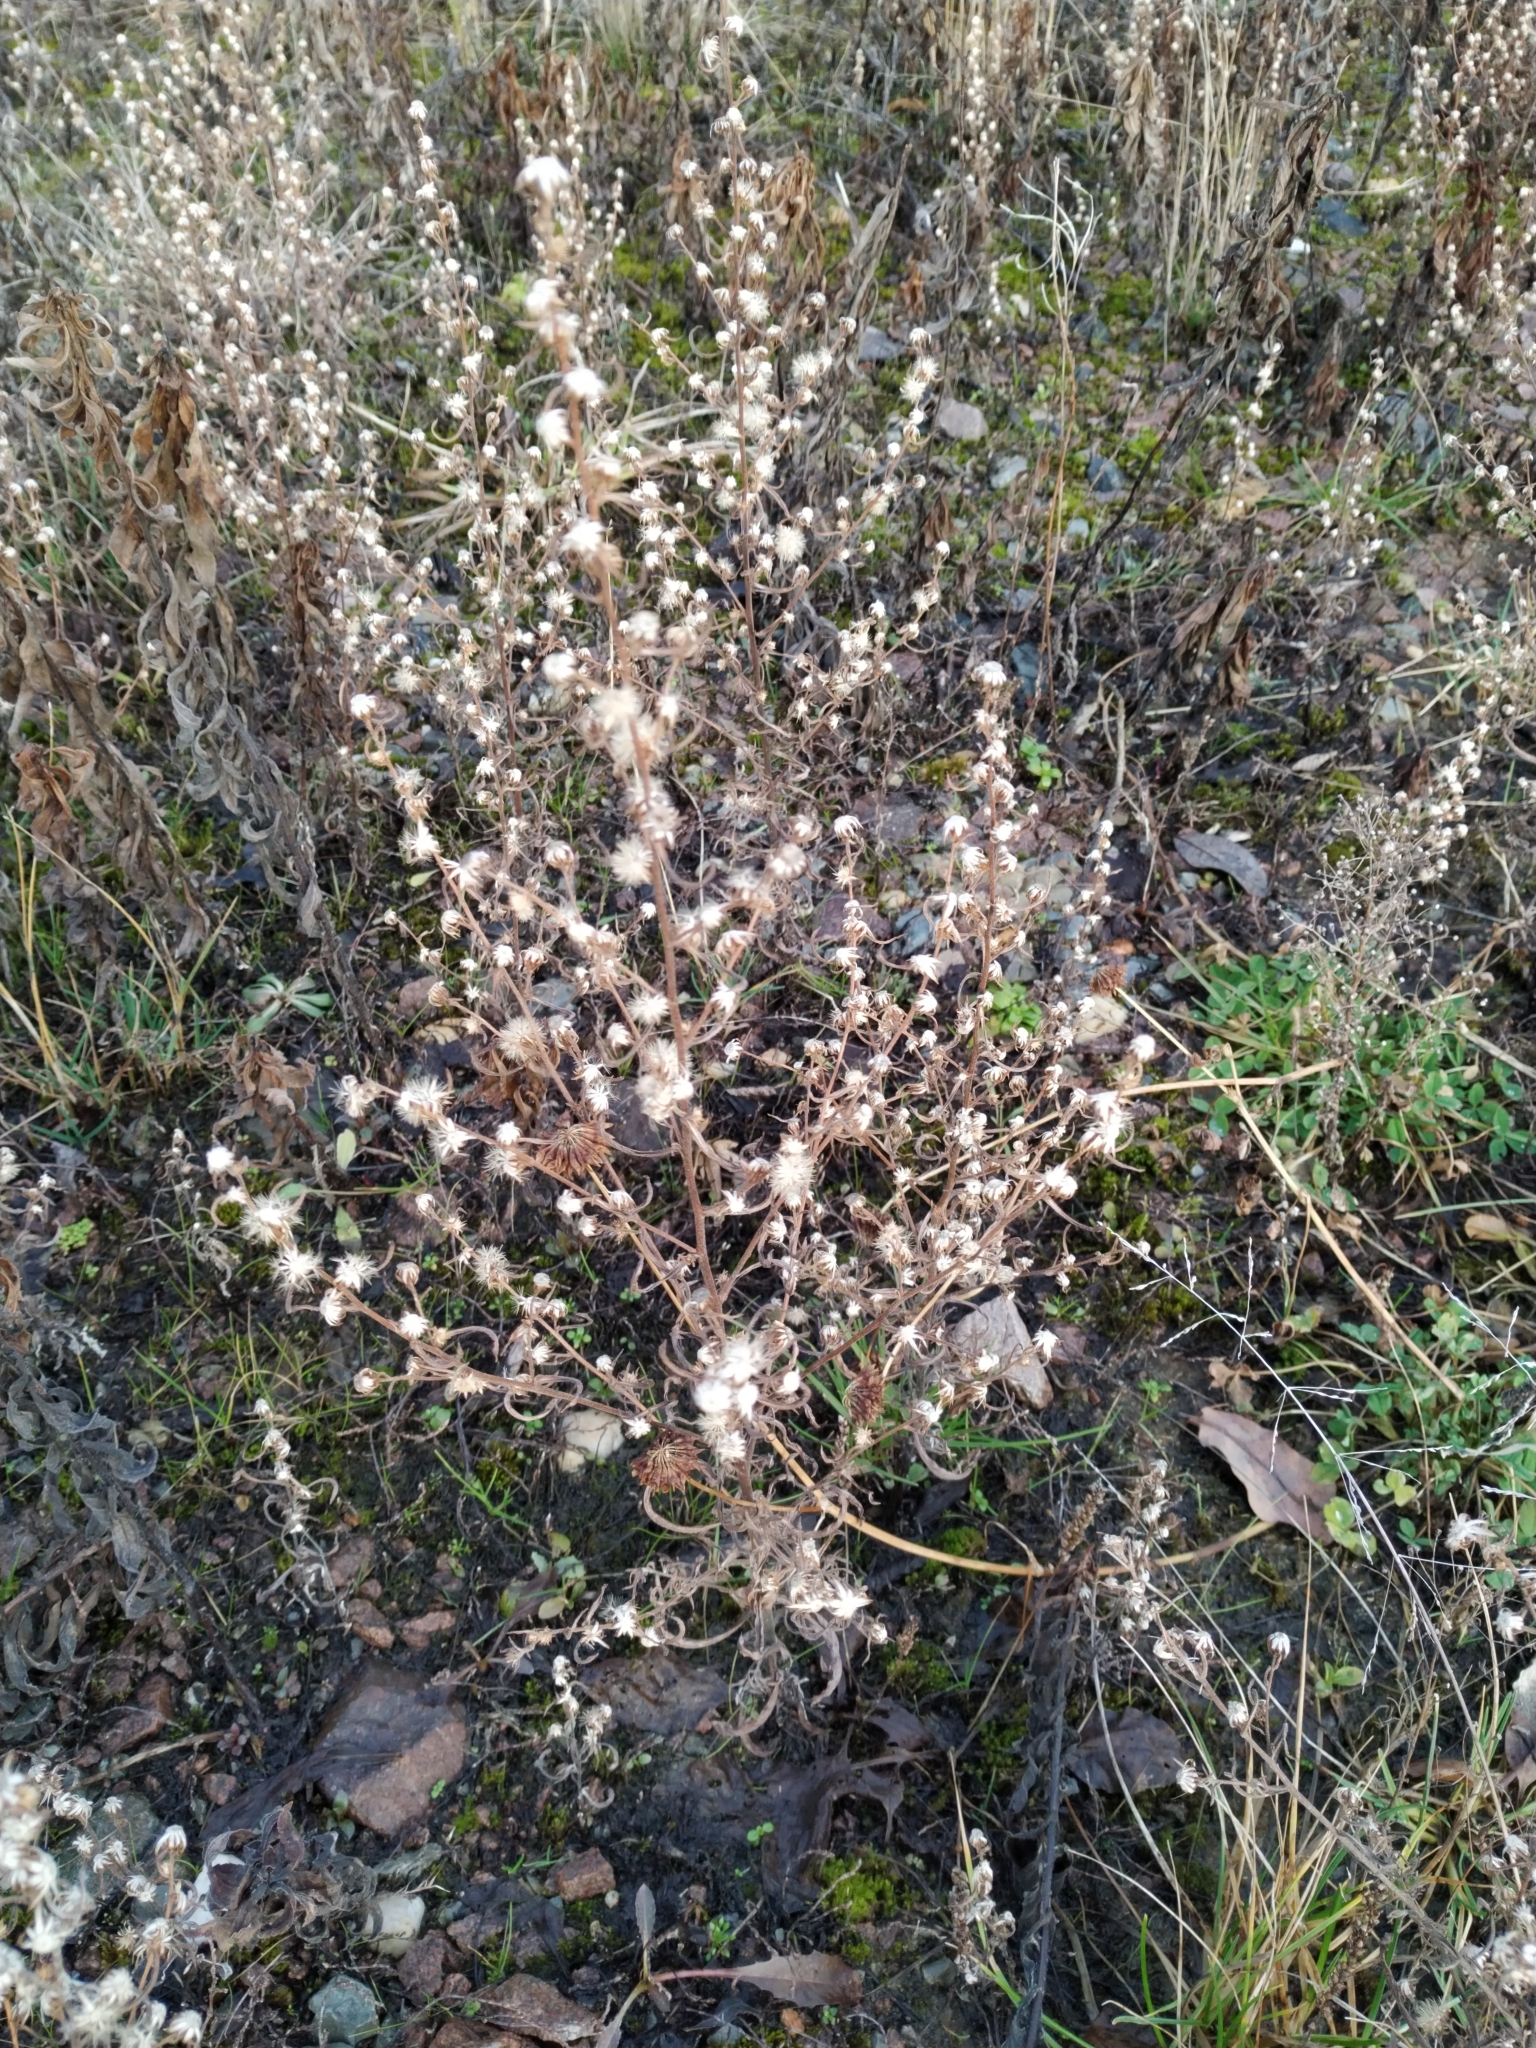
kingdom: Plantae
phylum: Tracheophyta
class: Magnoliopsida
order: Asterales
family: Asteraceae
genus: Dittrichia
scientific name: Dittrichia graveolens
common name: Stinking fleabane
